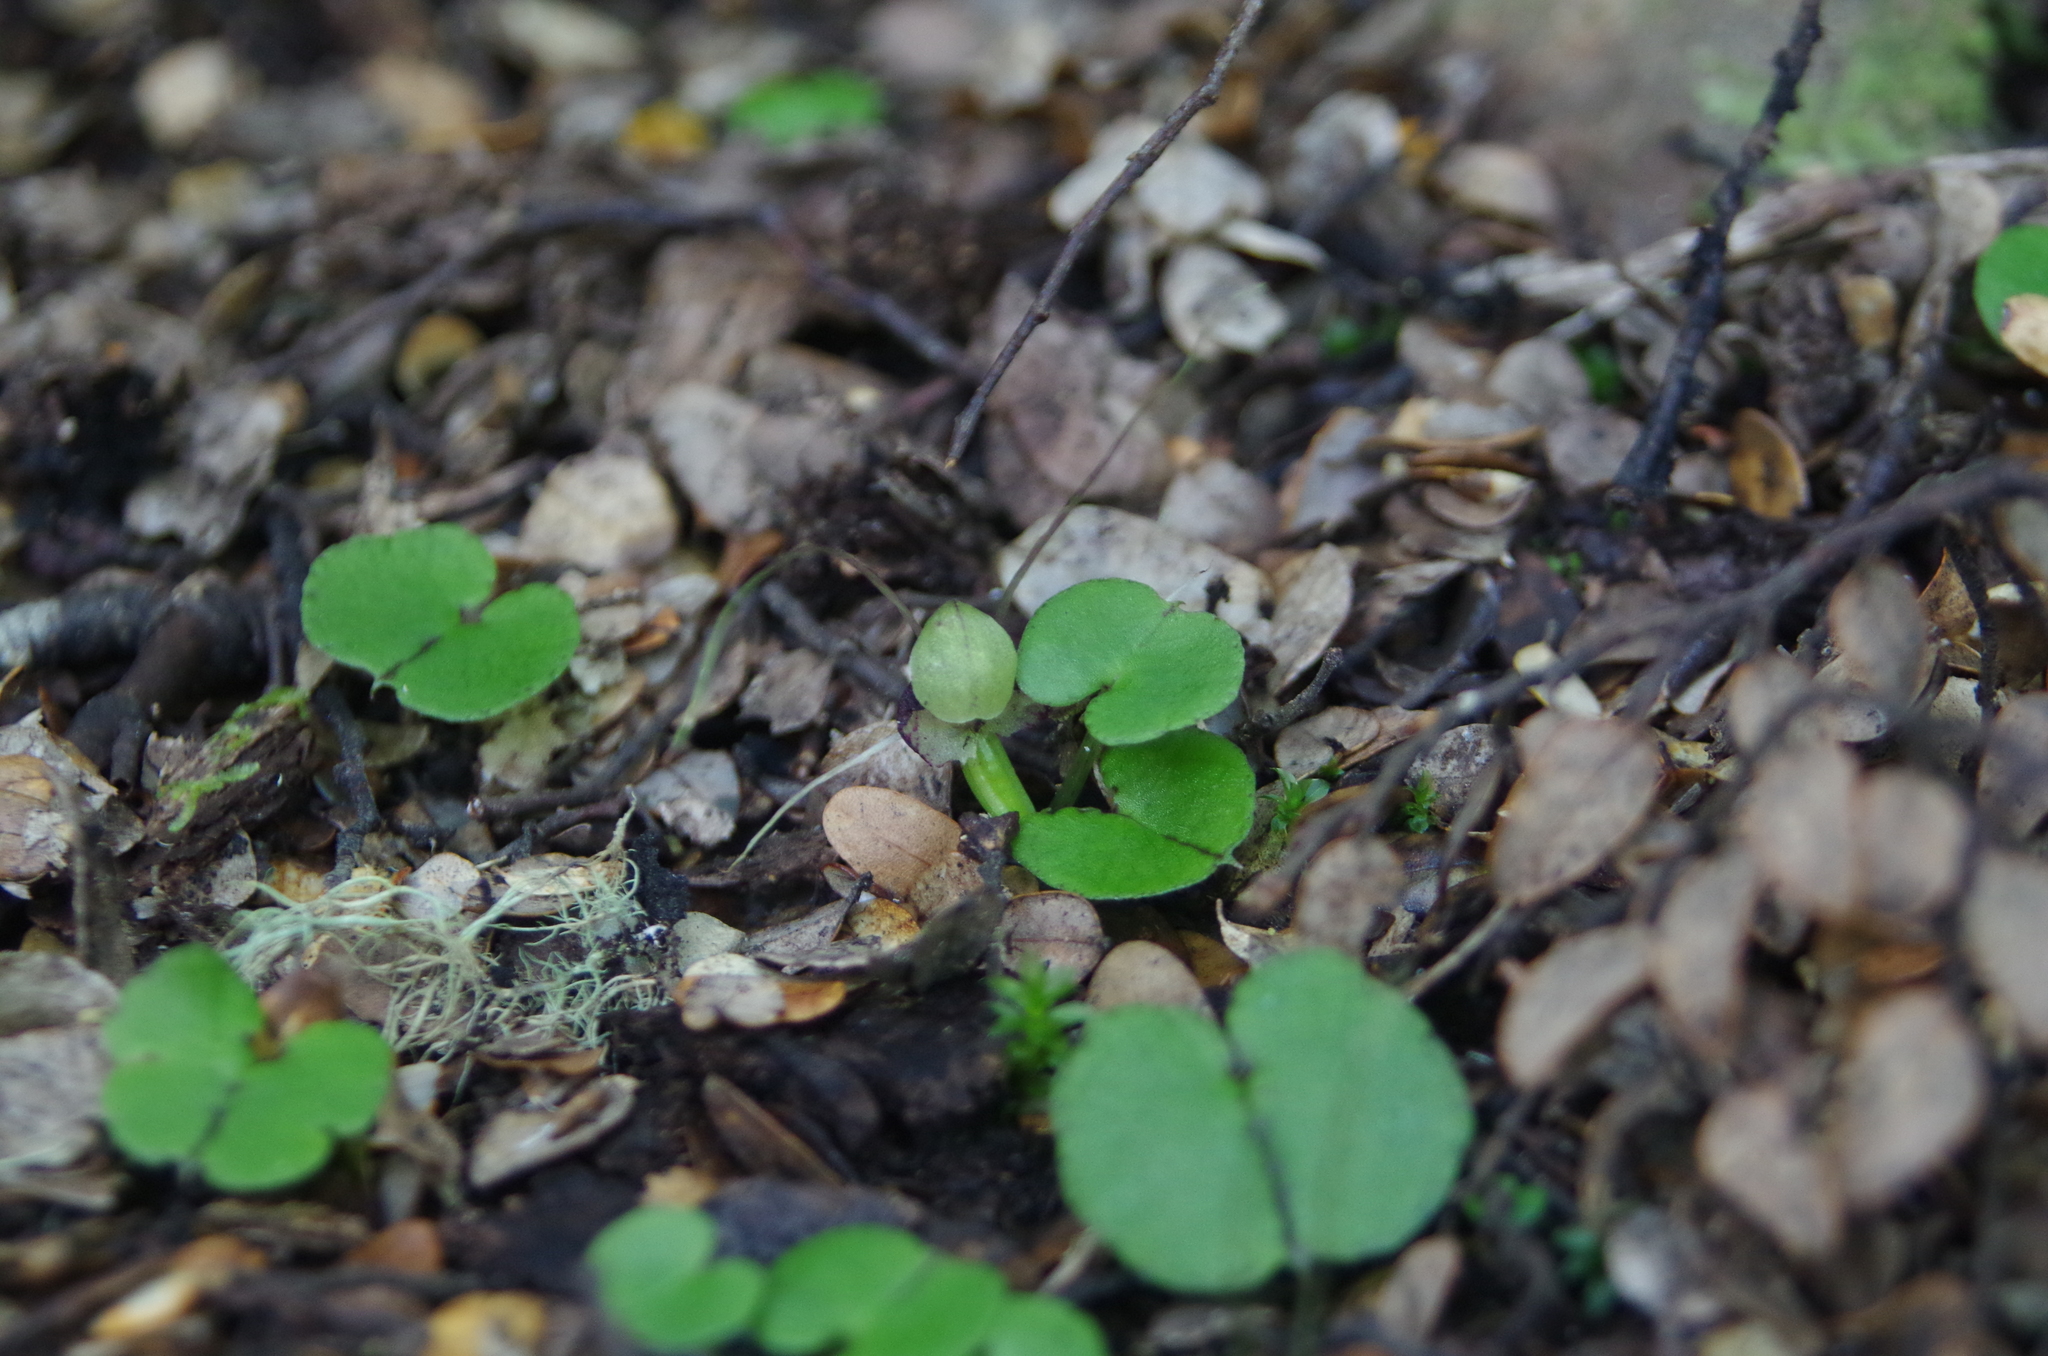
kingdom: Plantae
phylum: Tracheophyta
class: Liliopsida
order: Asparagales
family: Orchidaceae
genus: Corybas
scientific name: Corybas vitreus
